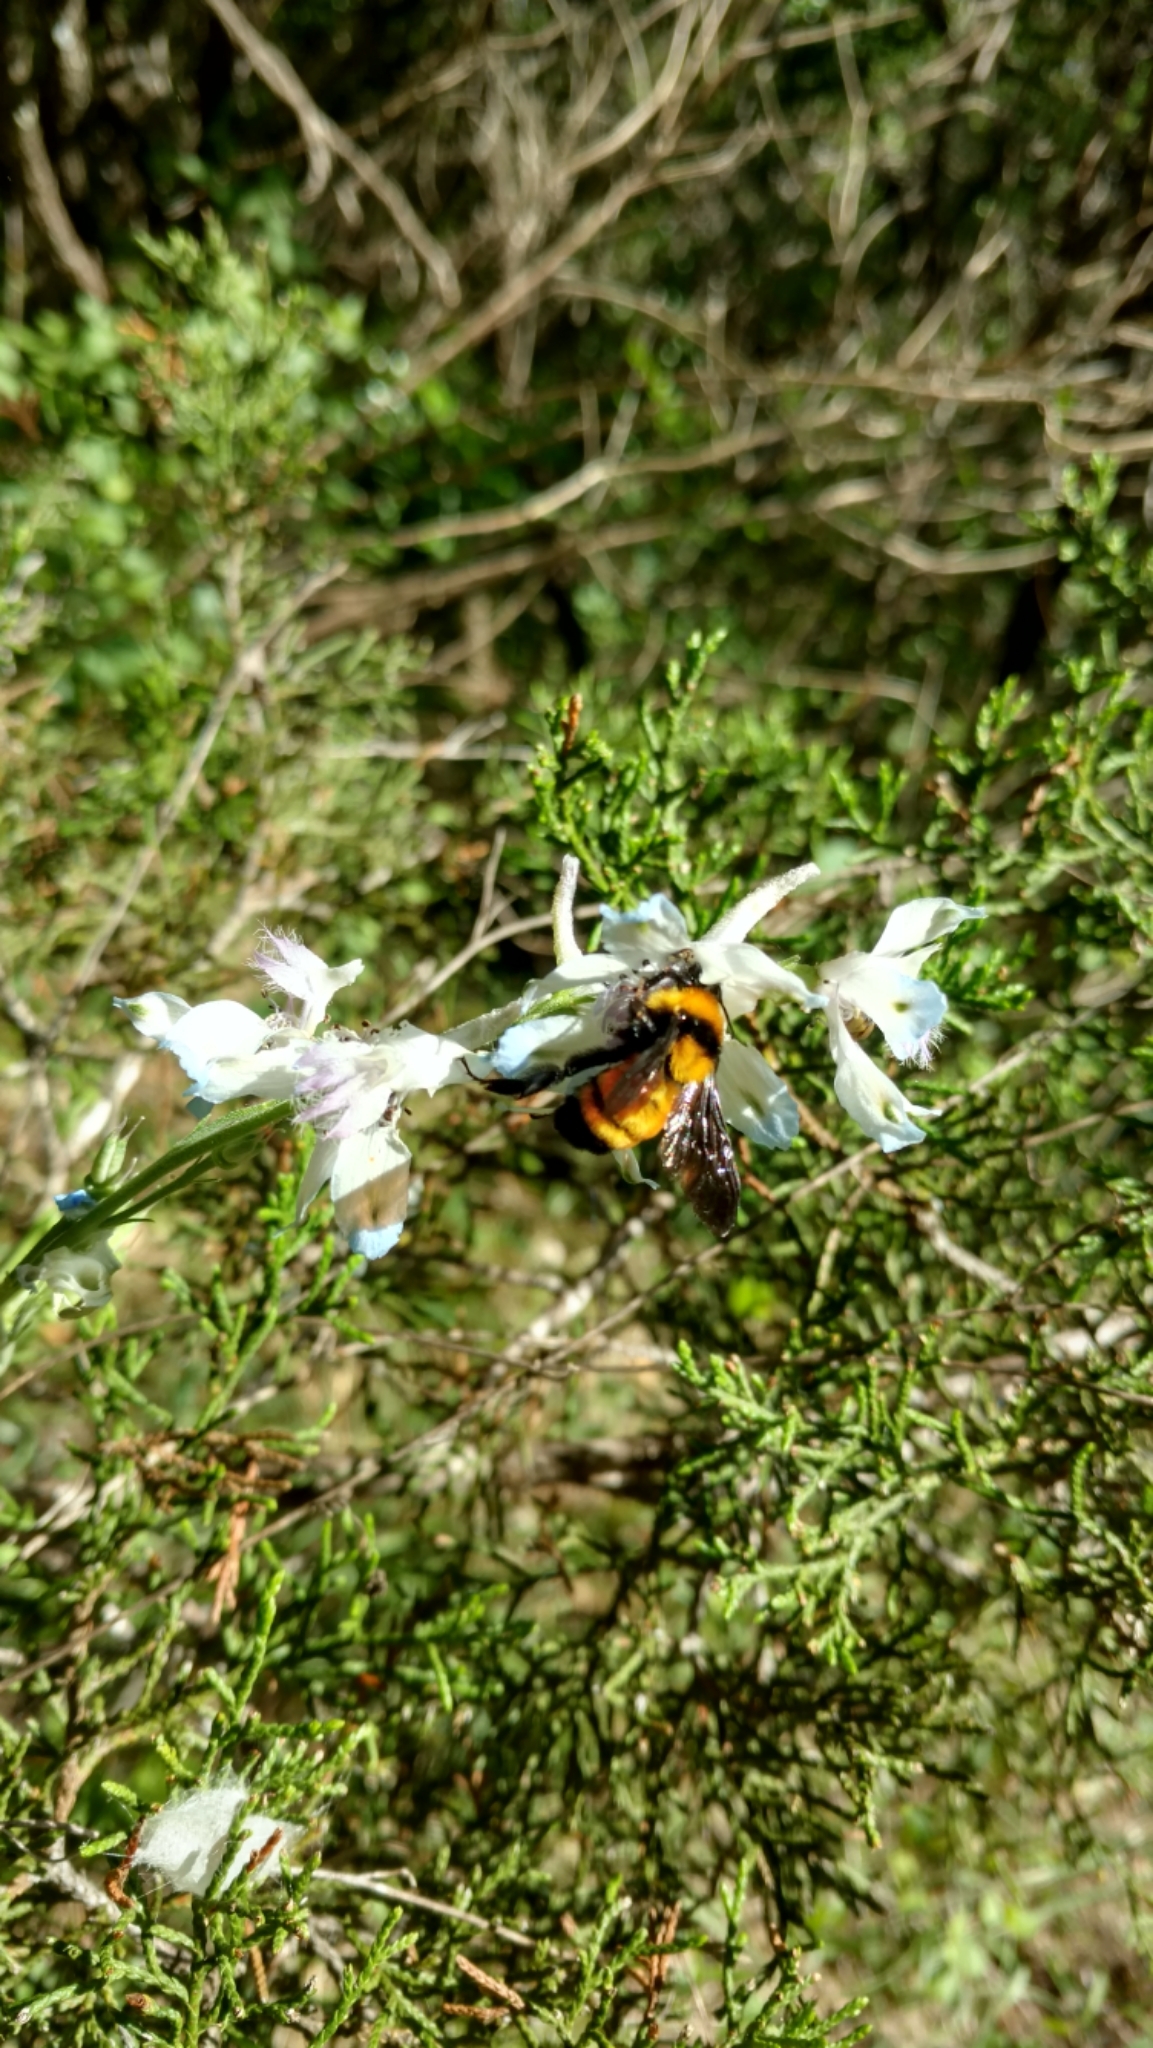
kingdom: Animalia
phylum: Arthropoda
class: Insecta
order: Hymenoptera
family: Apidae
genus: Bombus
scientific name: Bombus sonorus
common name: Sonoran bumble bee
